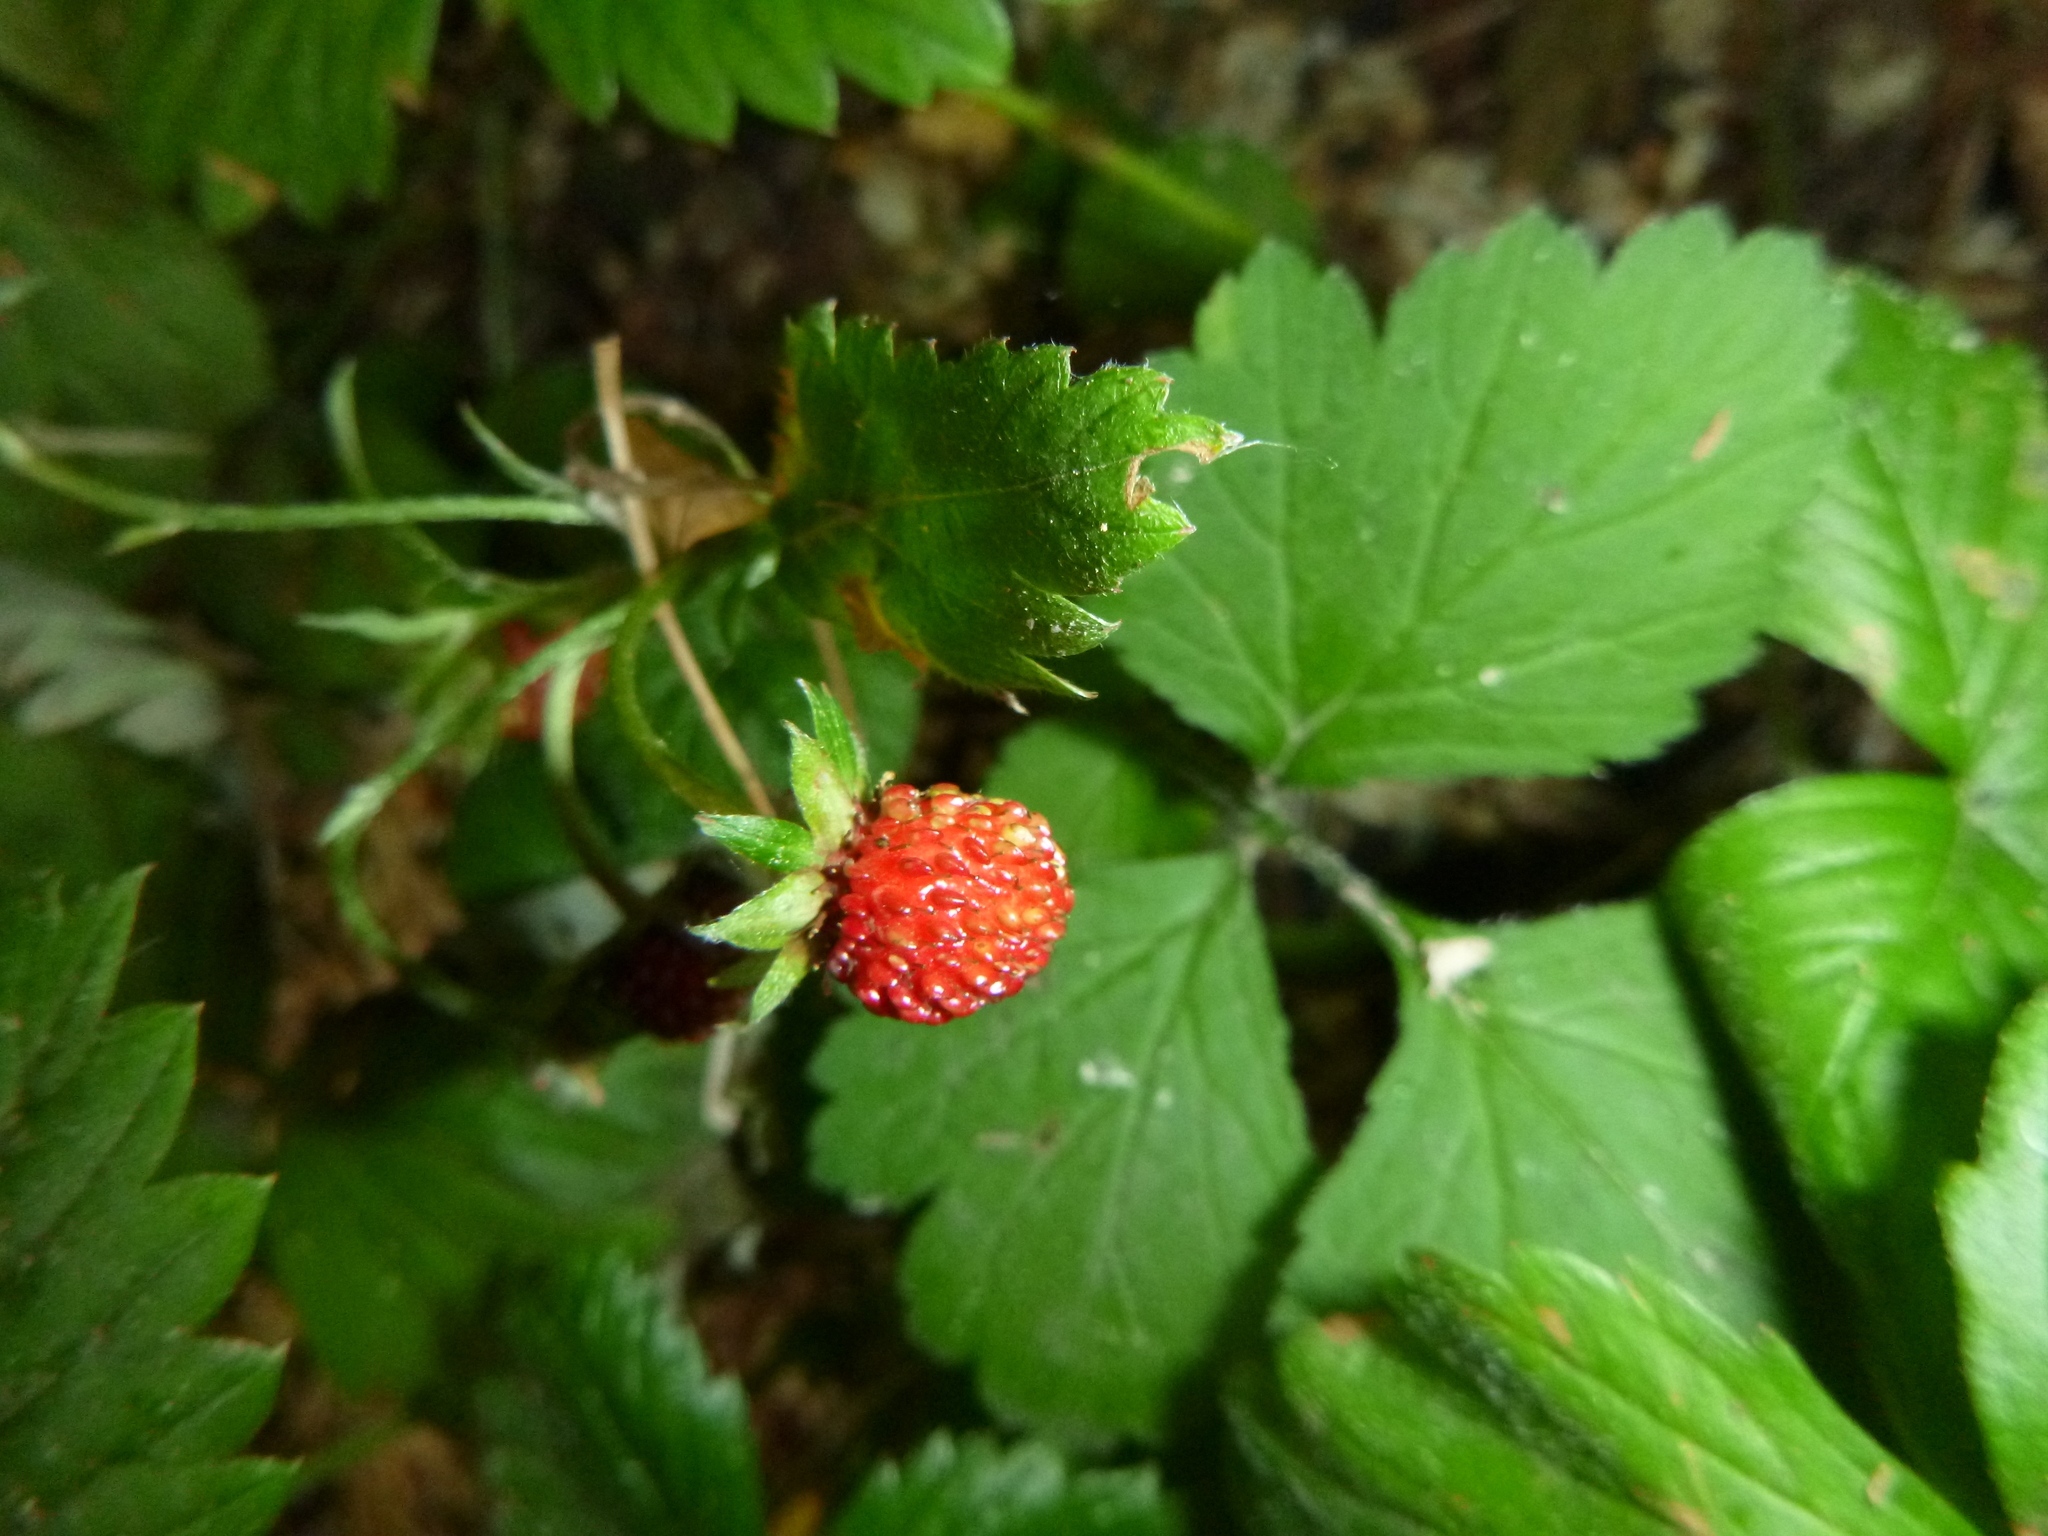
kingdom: Plantae
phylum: Tracheophyta
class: Magnoliopsida
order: Rosales
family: Rosaceae
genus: Fragaria
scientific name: Fragaria vesca
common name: Wild strawberry
